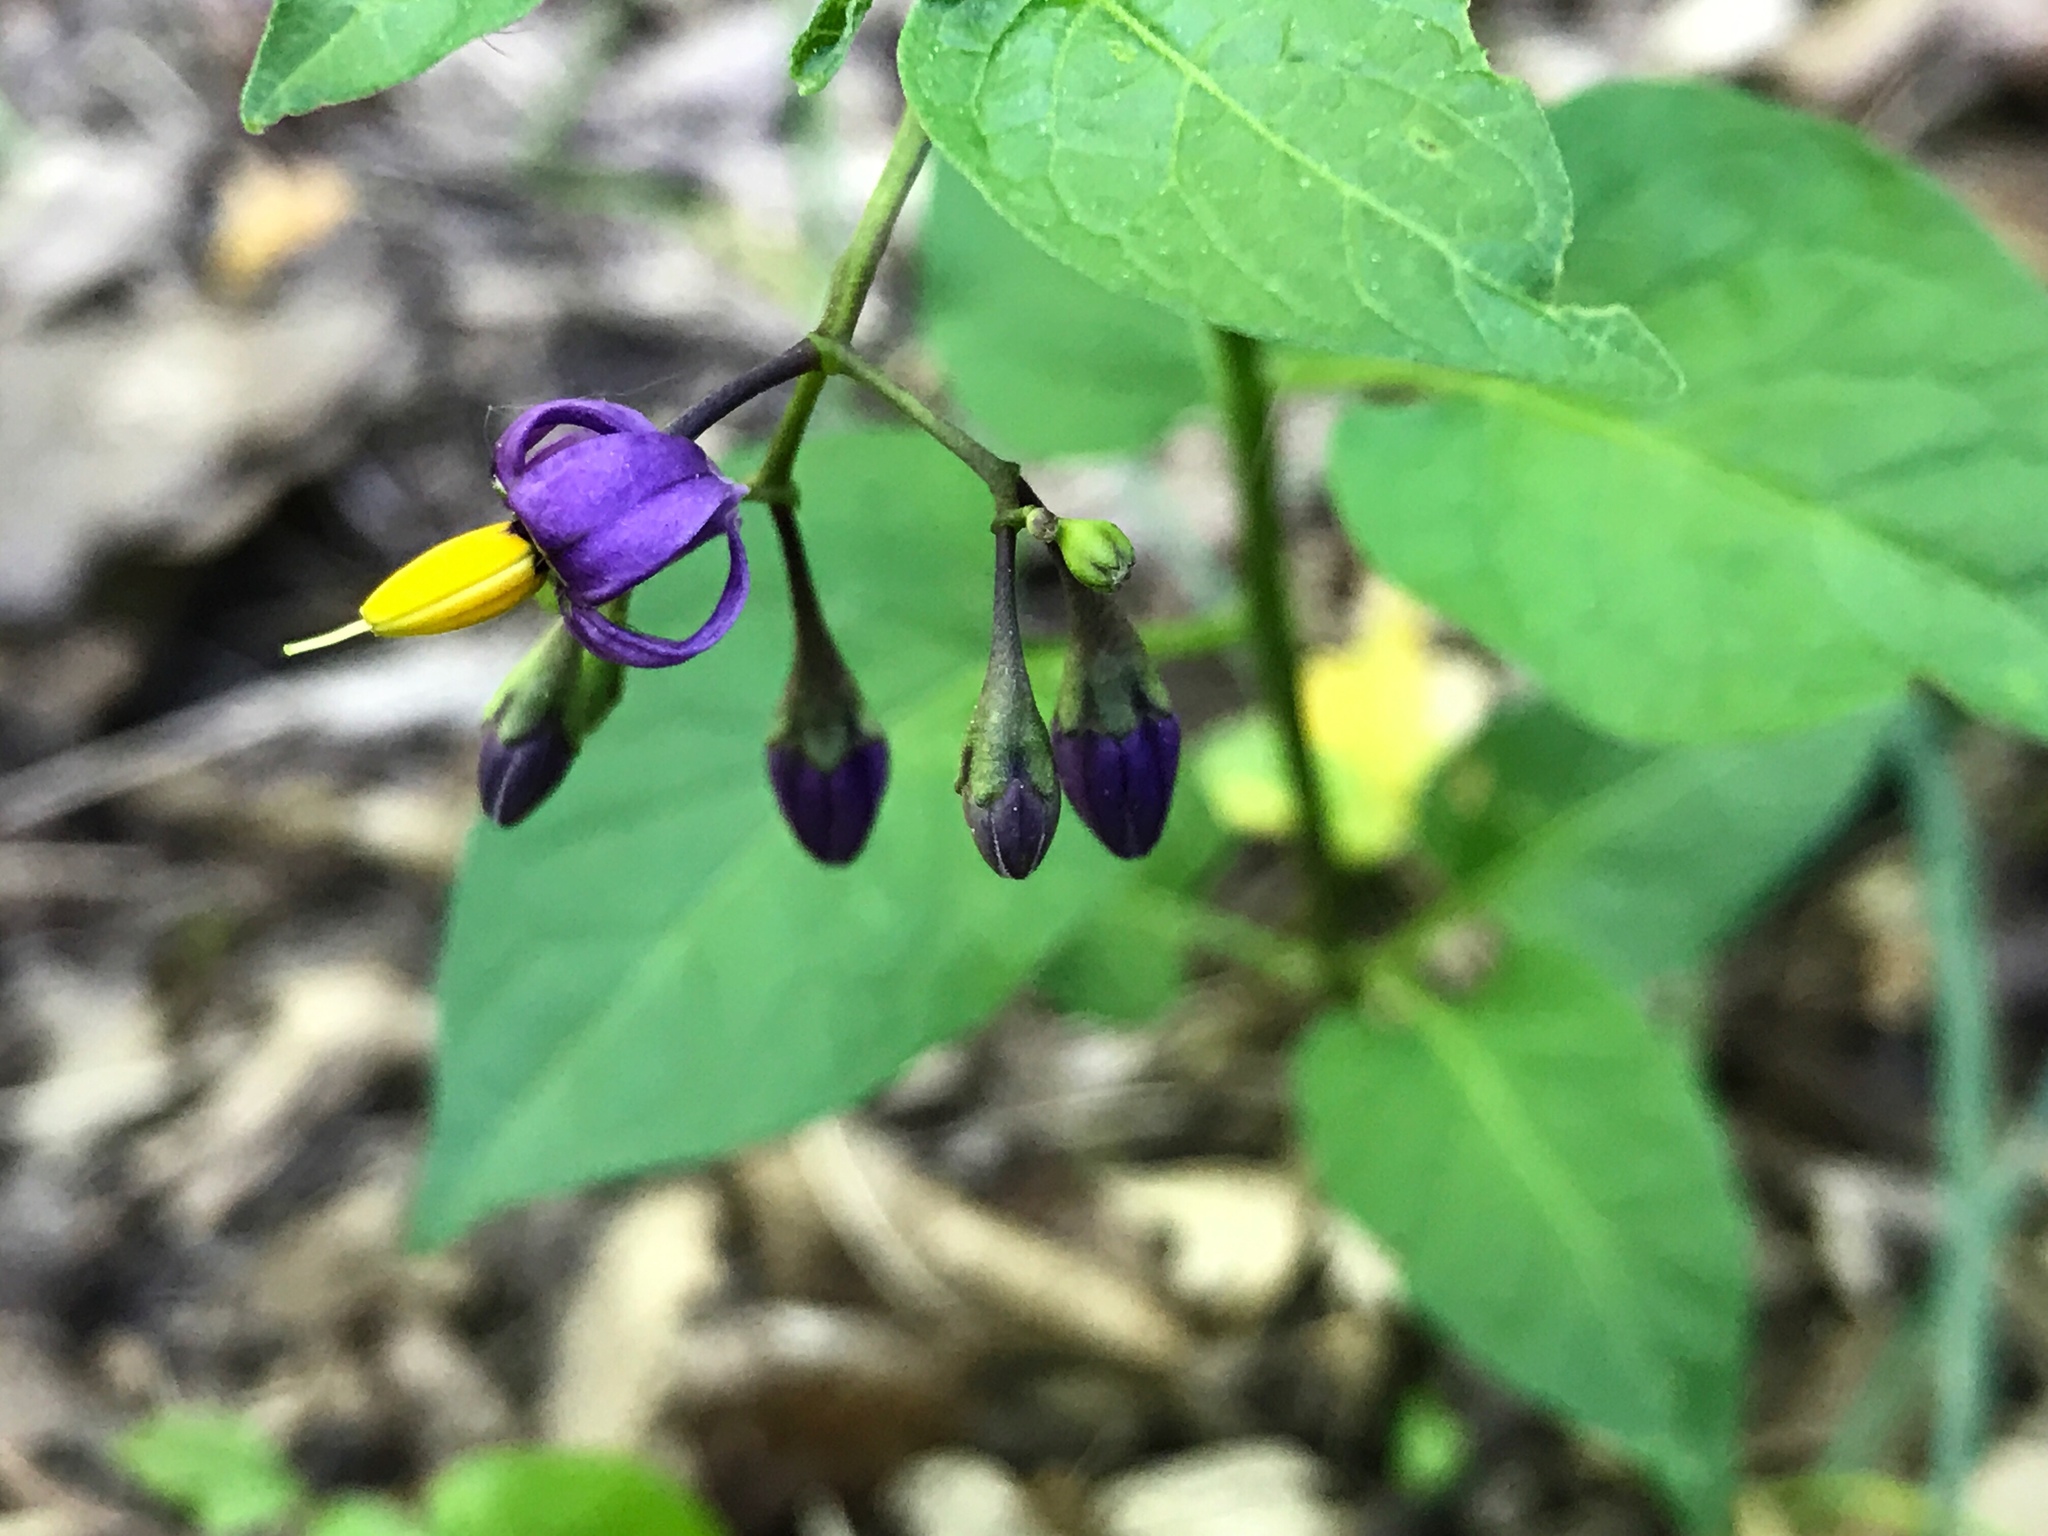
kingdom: Plantae
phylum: Tracheophyta
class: Magnoliopsida
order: Solanales
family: Solanaceae
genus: Solanum
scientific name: Solanum dulcamara
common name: Climbing nightshade
